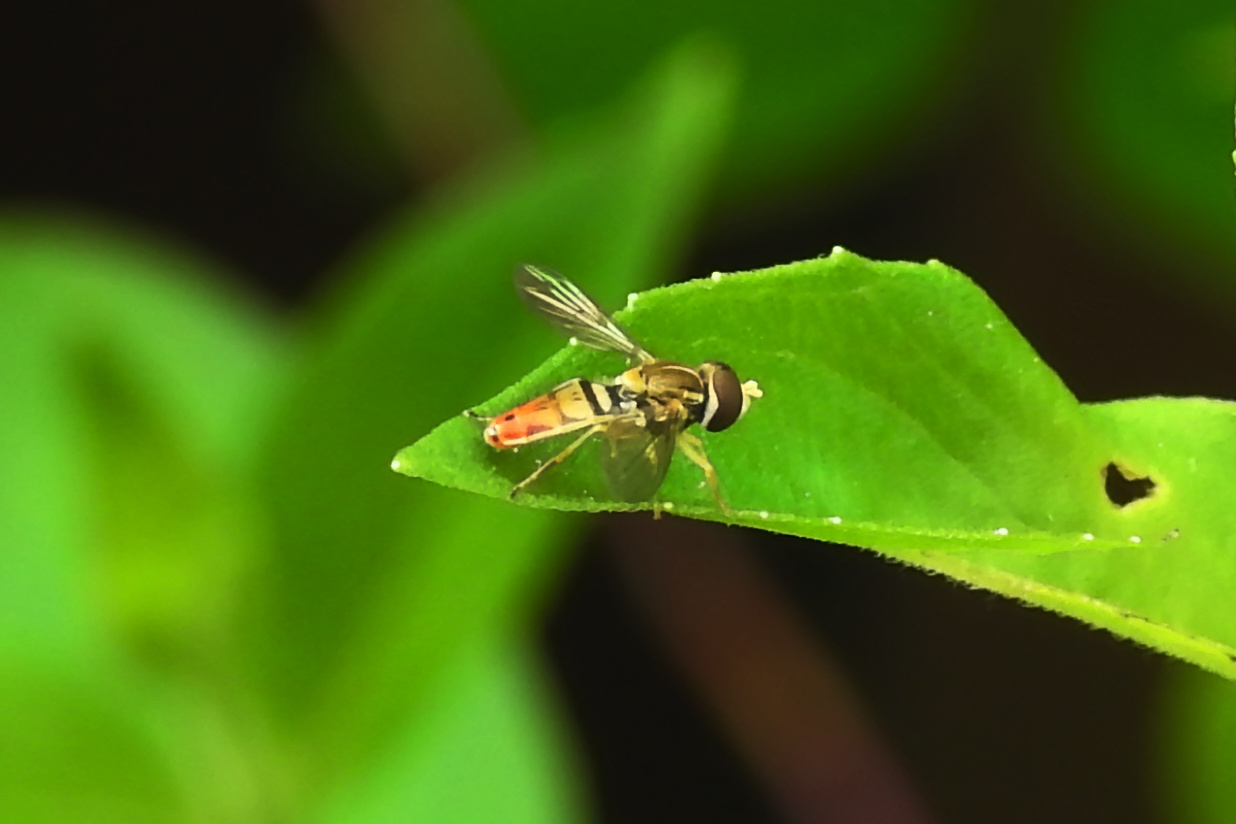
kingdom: Animalia
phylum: Arthropoda
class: Insecta
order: Diptera
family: Syrphidae
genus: Toxomerus
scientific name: Toxomerus marginatus
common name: Syrphid fly
